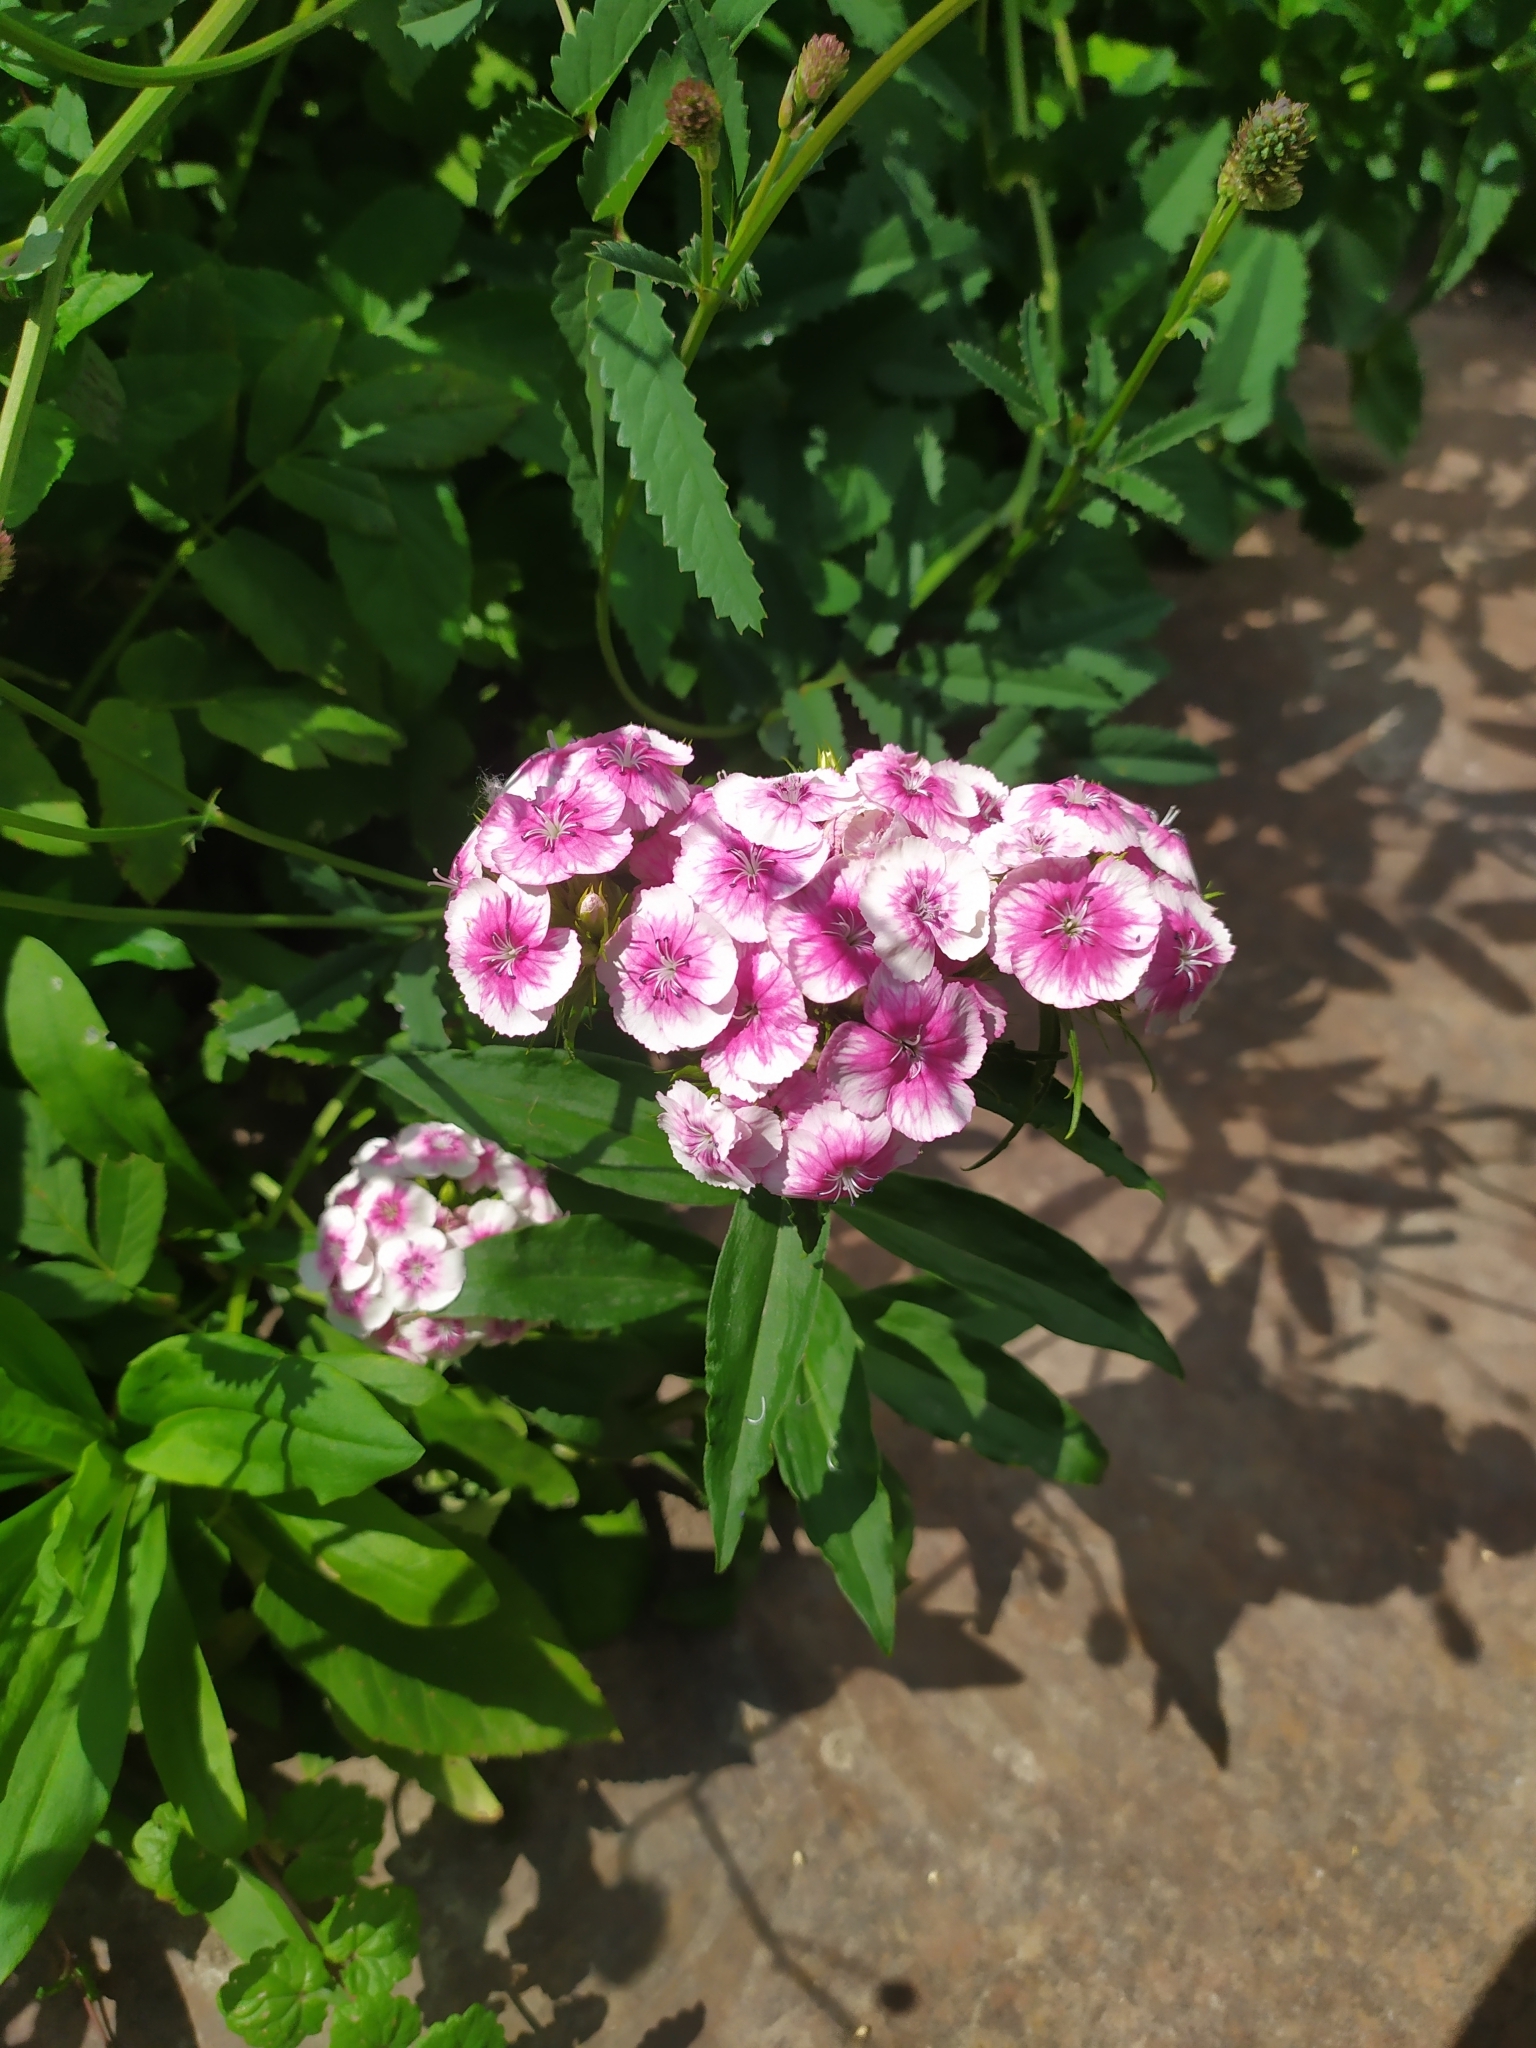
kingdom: Plantae
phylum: Tracheophyta
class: Magnoliopsida
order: Caryophyllales
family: Caryophyllaceae
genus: Dianthus
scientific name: Dianthus barbatus
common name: Sweet-william
